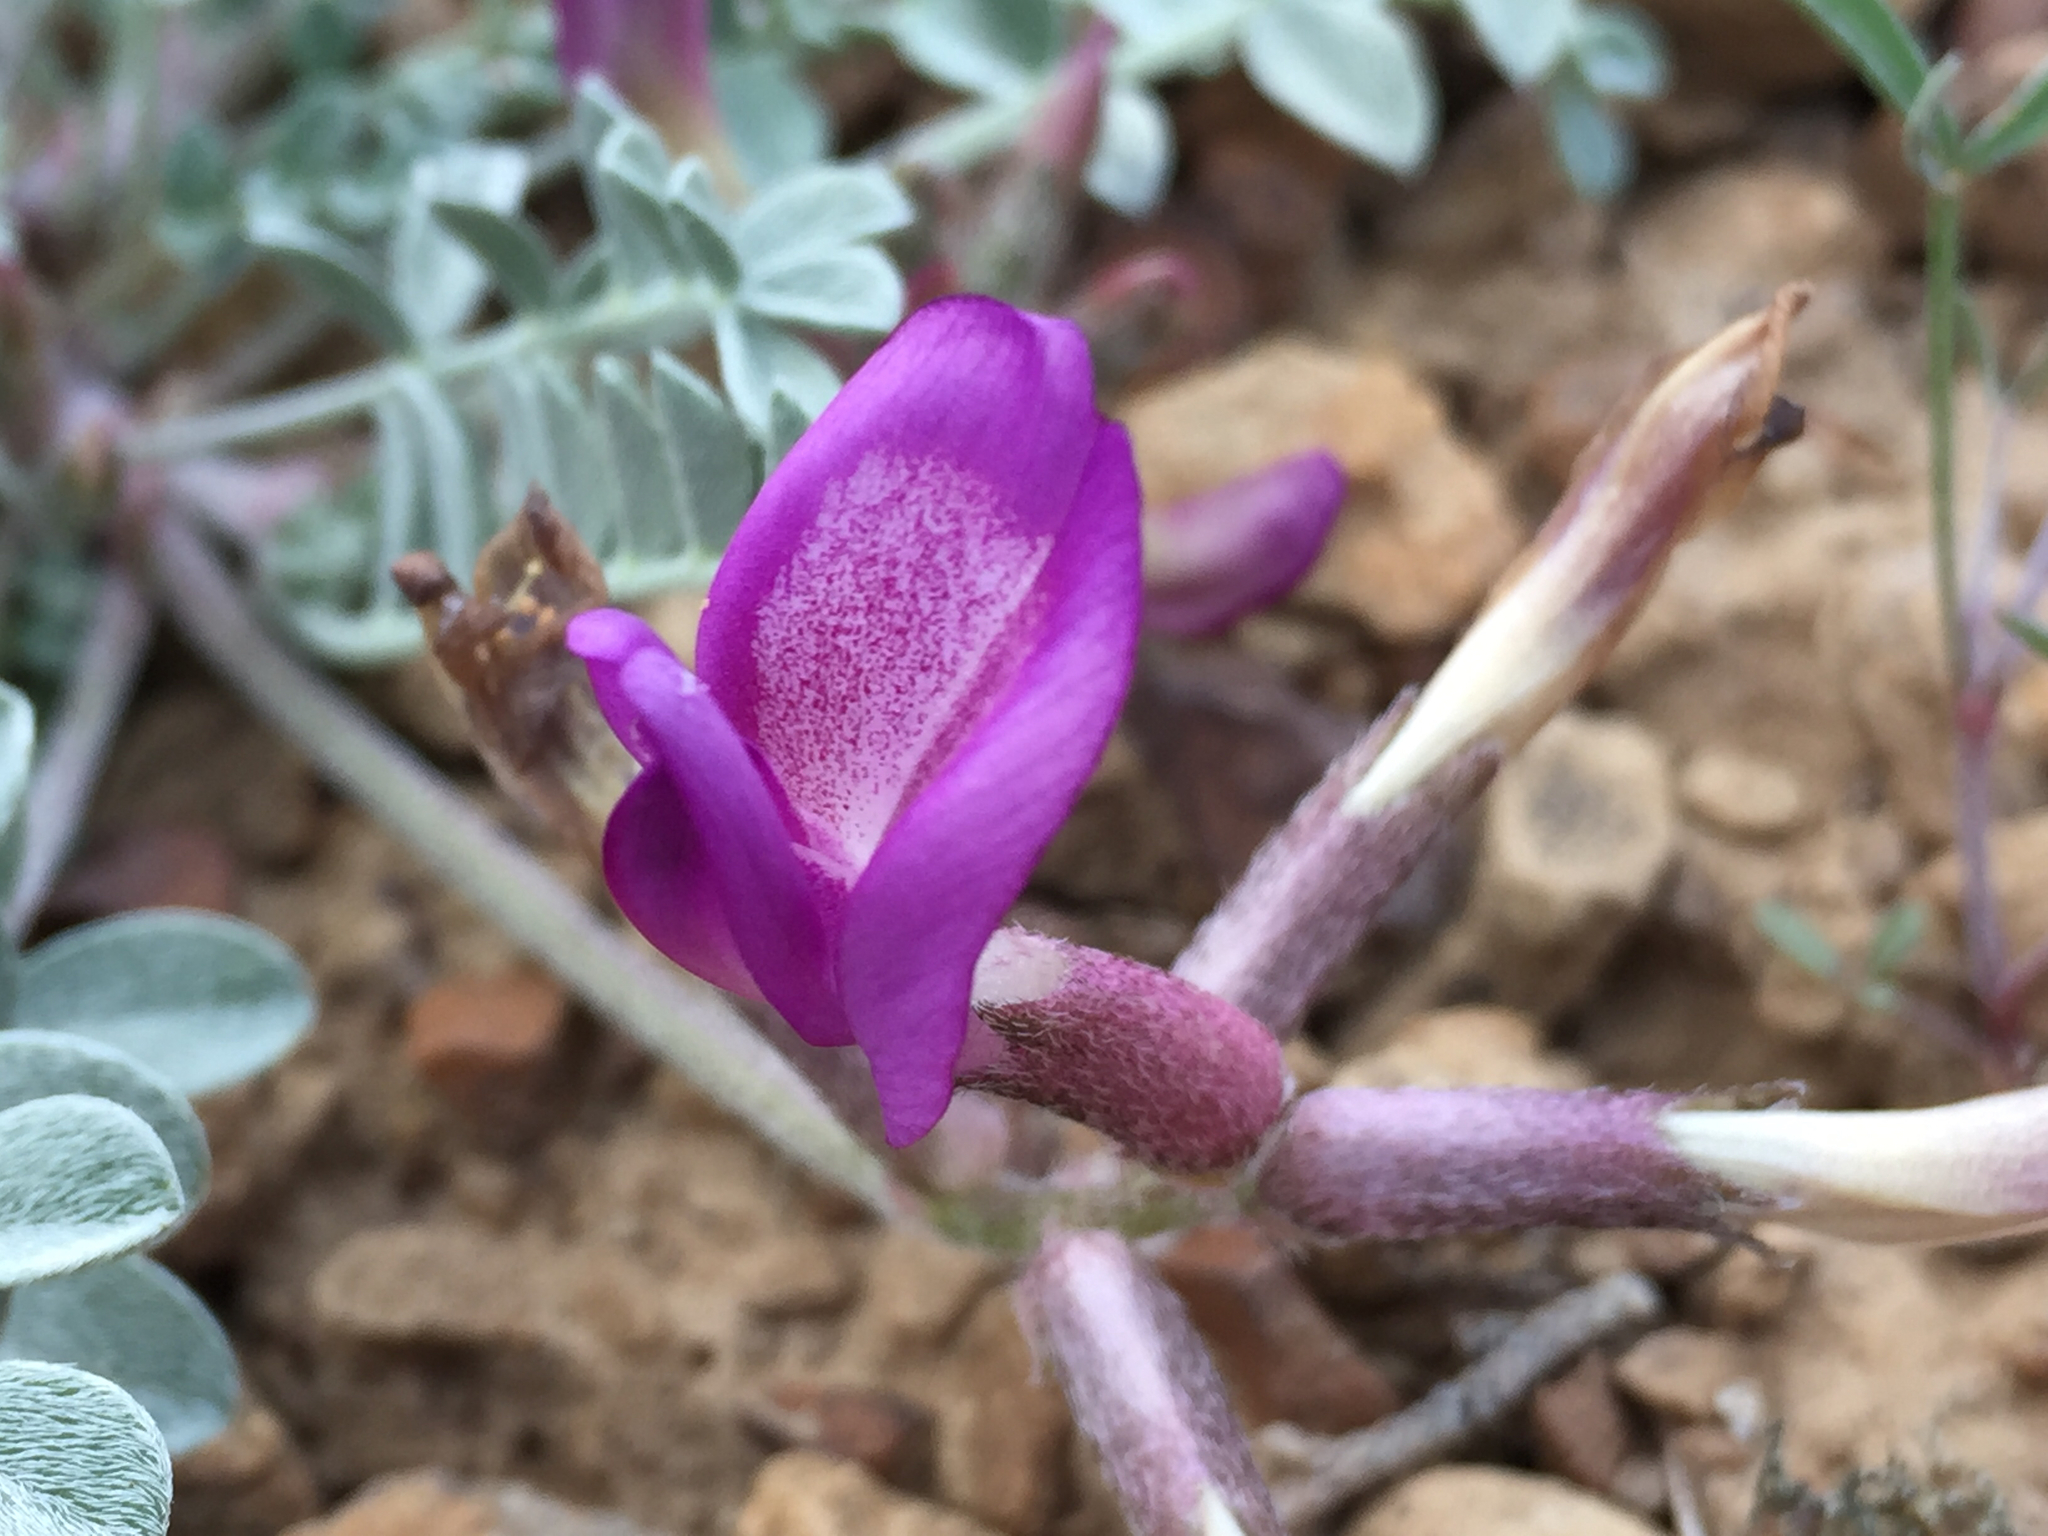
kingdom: Plantae
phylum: Tracheophyta
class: Magnoliopsida
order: Fabales
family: Fabaceae
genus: Astragalus
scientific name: Astragalus chamaeleuce
